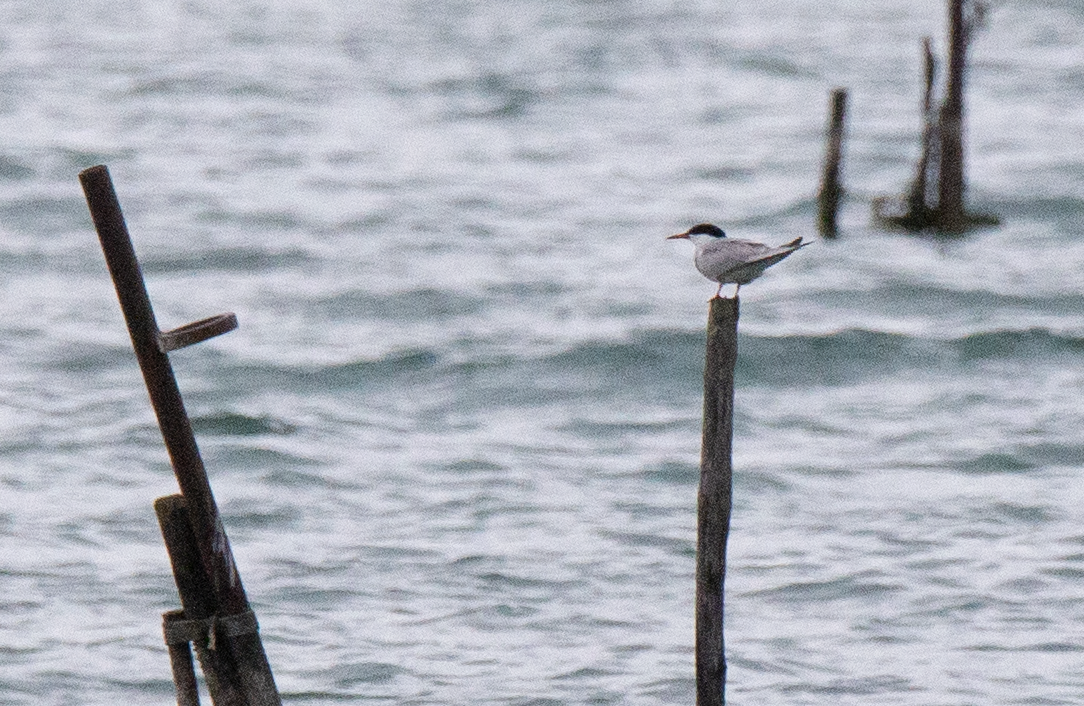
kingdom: Animalia
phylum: Chordata
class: Aves
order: Charadriiformes
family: Laridae
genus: Sterna
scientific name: Sterna hirundo
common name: Common tern
